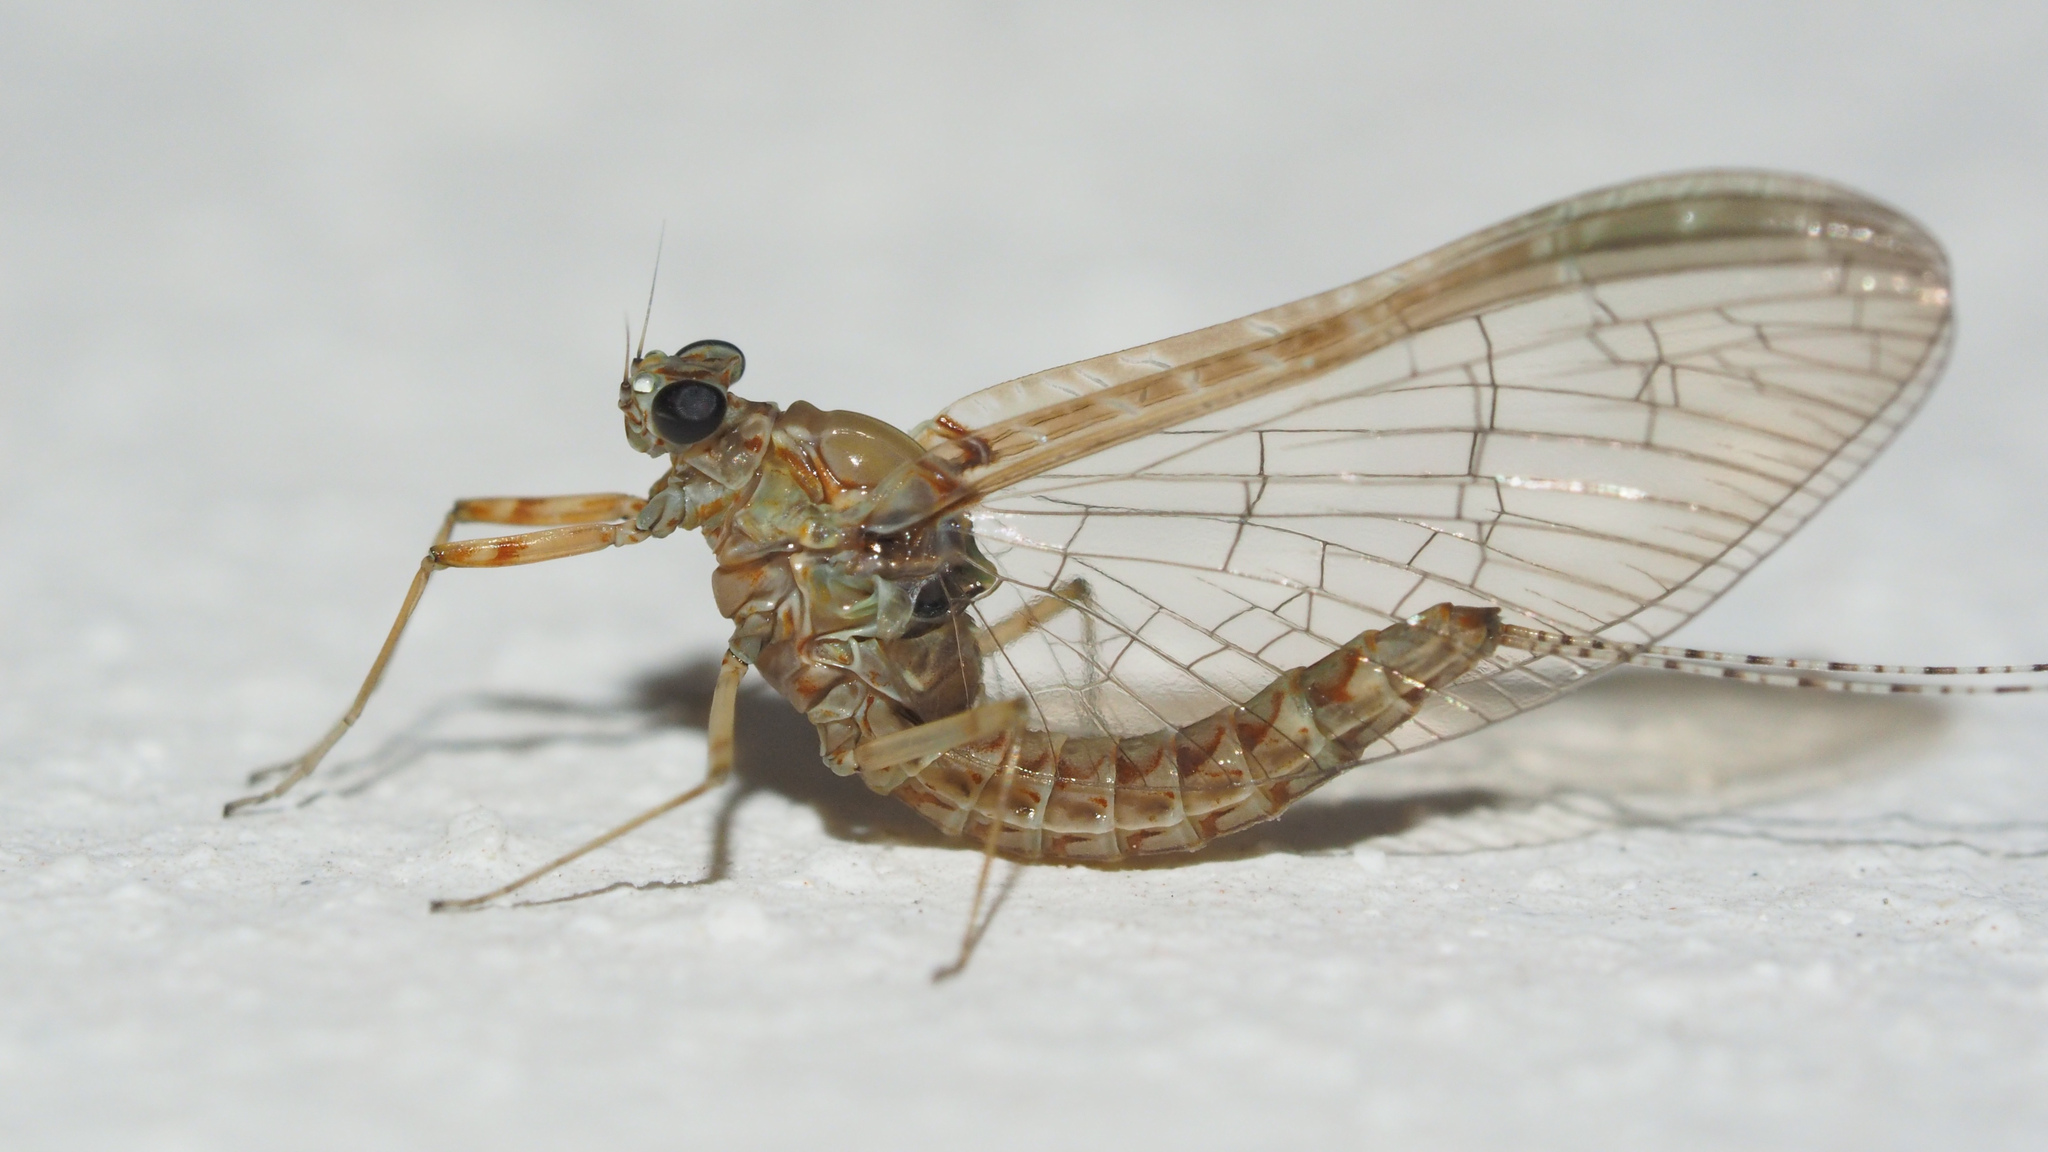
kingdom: Animalia
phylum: Arthropoda
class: Insecta
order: Ephemeroptera
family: Baetidae
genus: Cloeon
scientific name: Cloeon dipterum
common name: Pond olive
